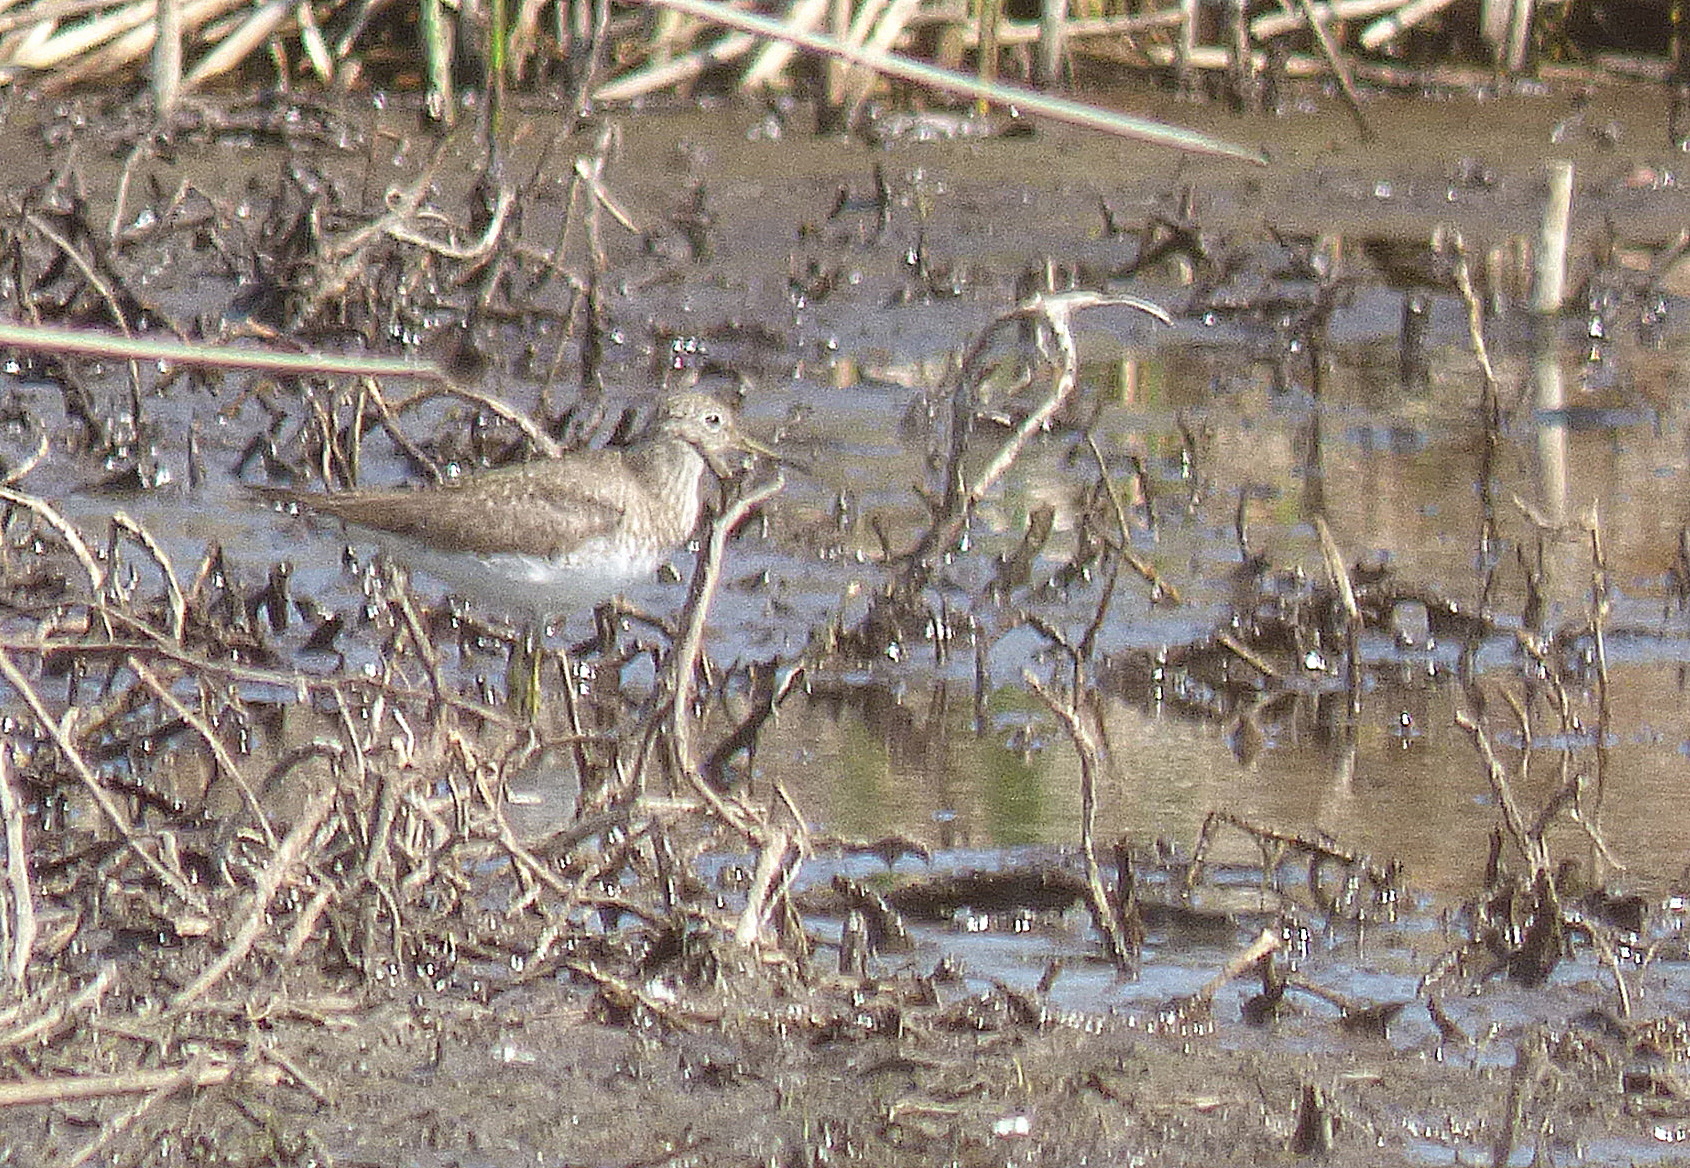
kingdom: Animalia
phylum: Chordata
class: Aves
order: Charadriiformes
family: Scolopacidae
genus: Tringa
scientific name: Tringa solitaria
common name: Solitary sandpiper
